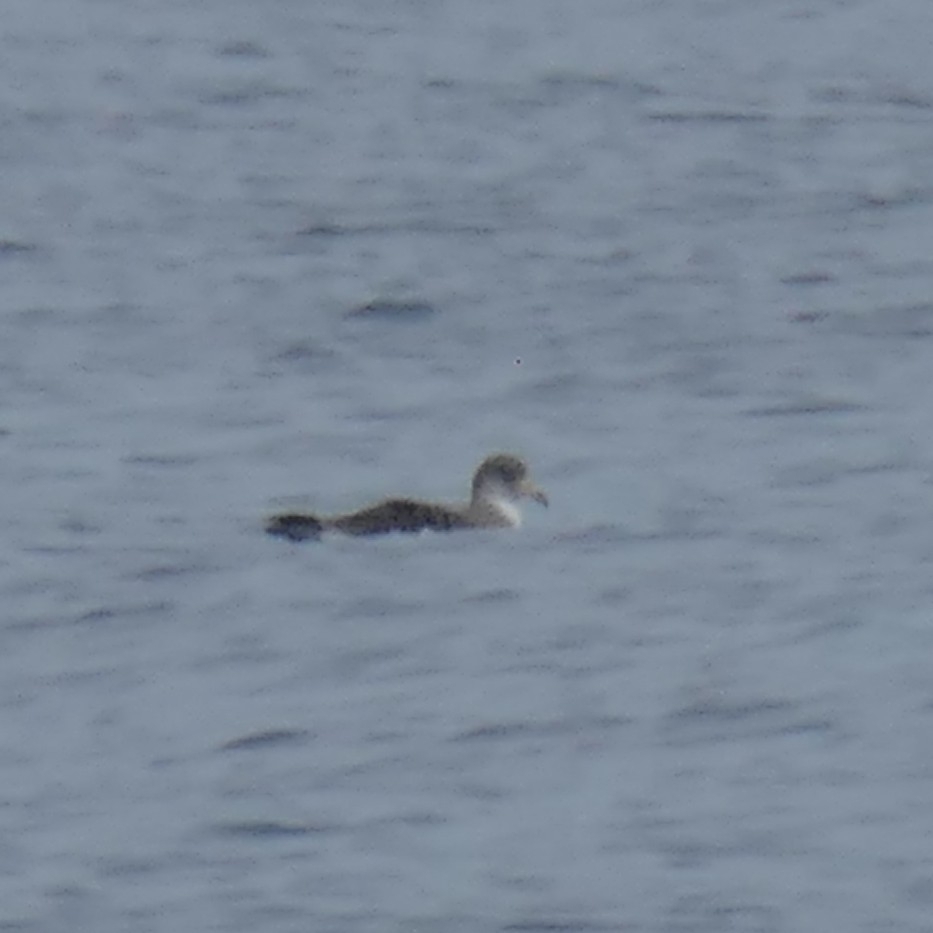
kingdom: Animalia
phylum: Chordata
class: Aves
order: Procellariiformes
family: Procellariidae
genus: Calonectris
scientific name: Calonectris diomedea
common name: Cory's shearwater
